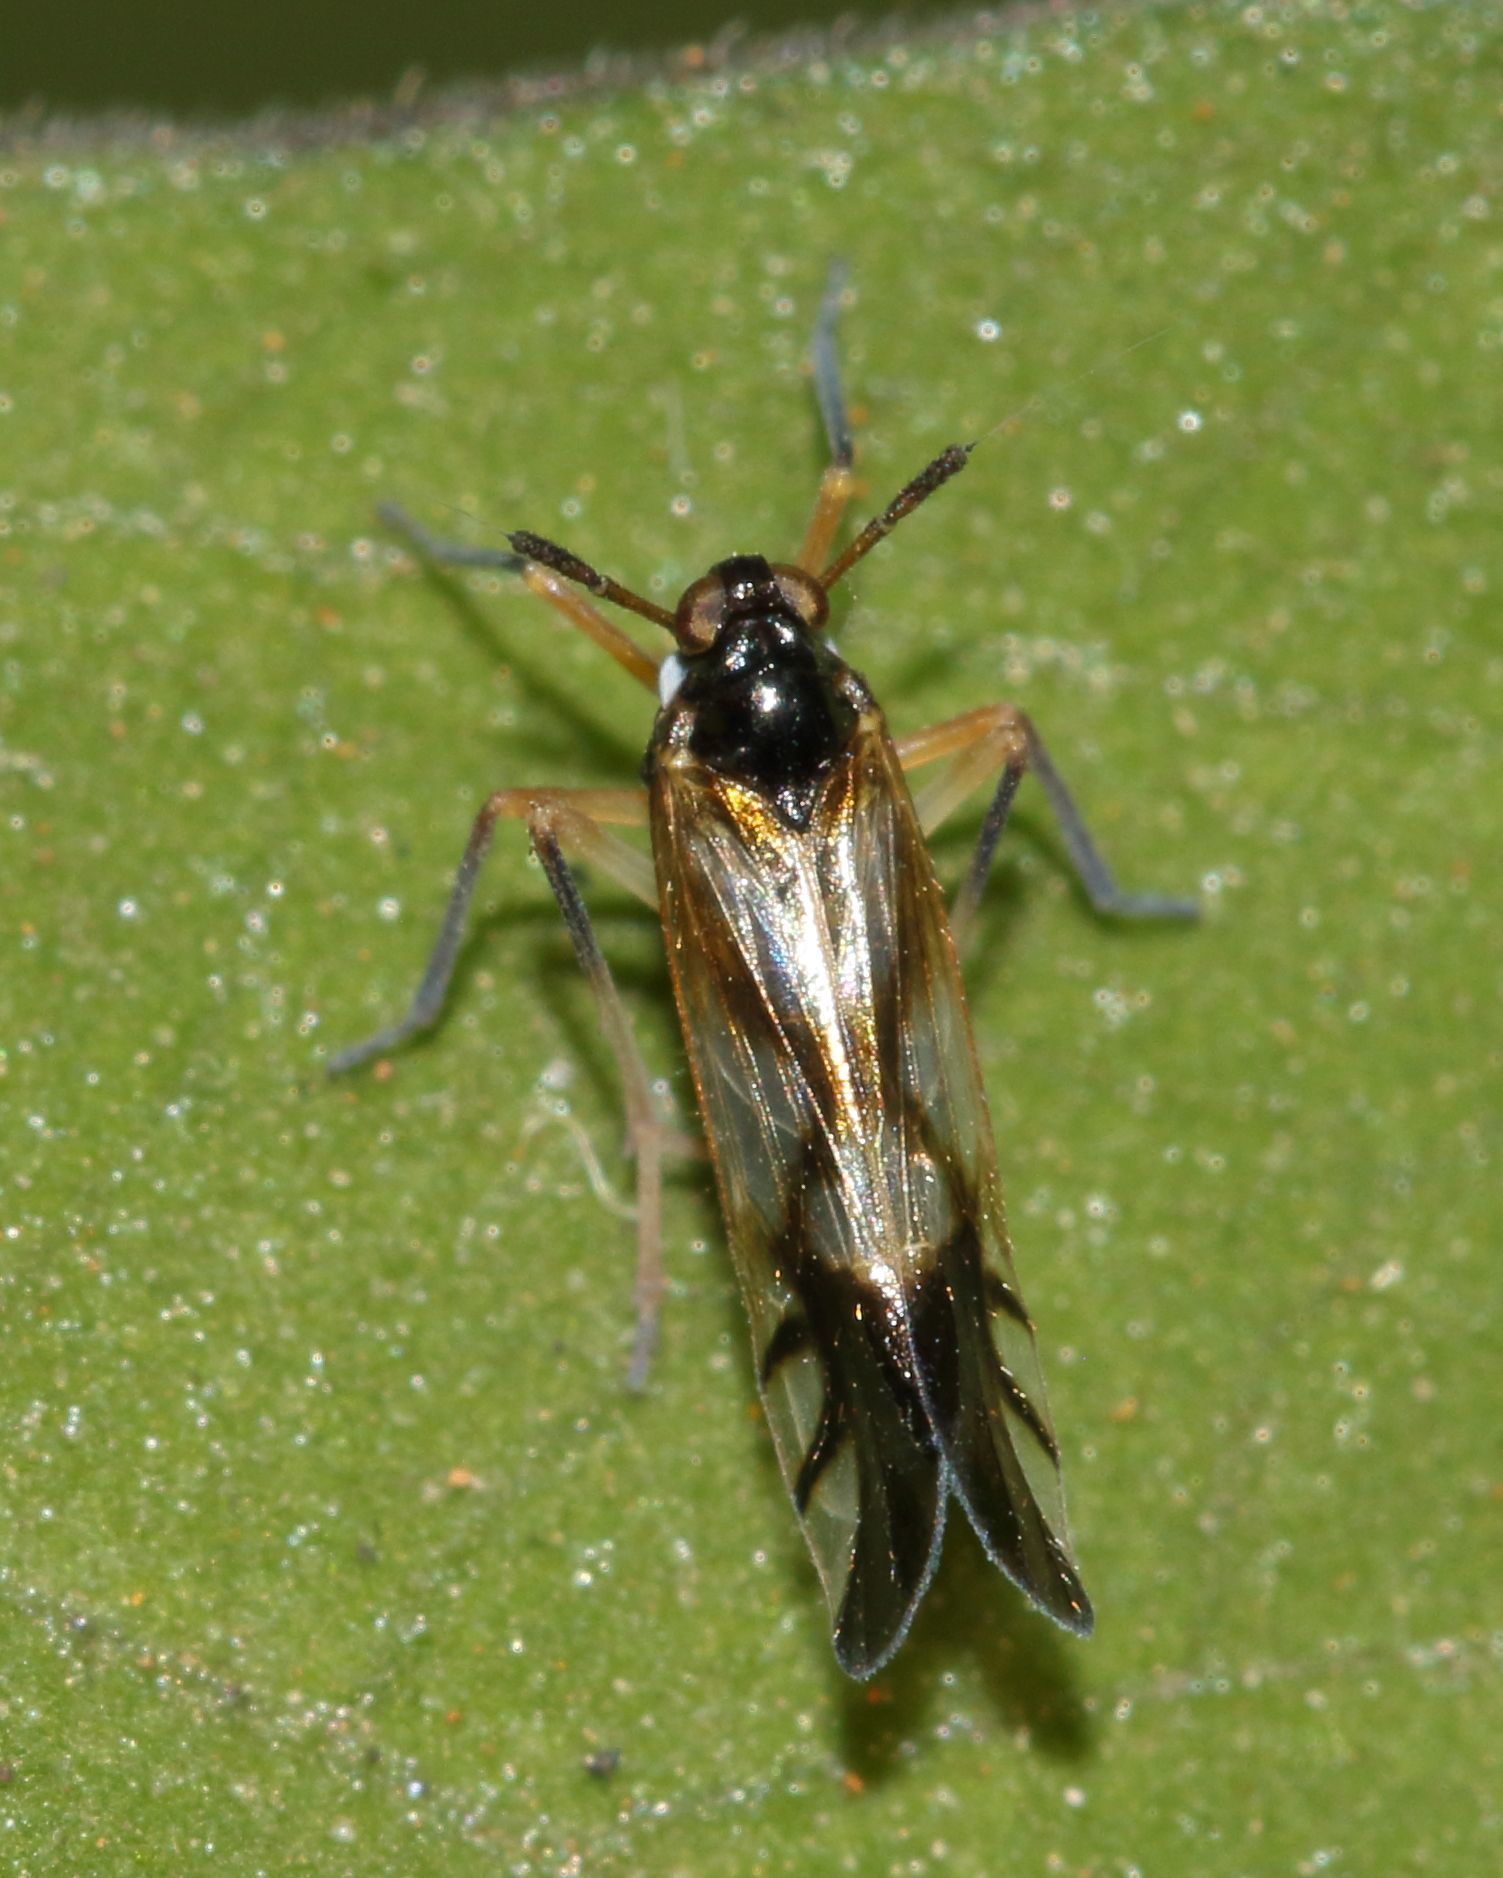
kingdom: Animalia
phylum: Arthropoda
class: Insecta
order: Hemiptera
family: Delphacidae
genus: Hapalomelus
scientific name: Hapalomelus flavipes
